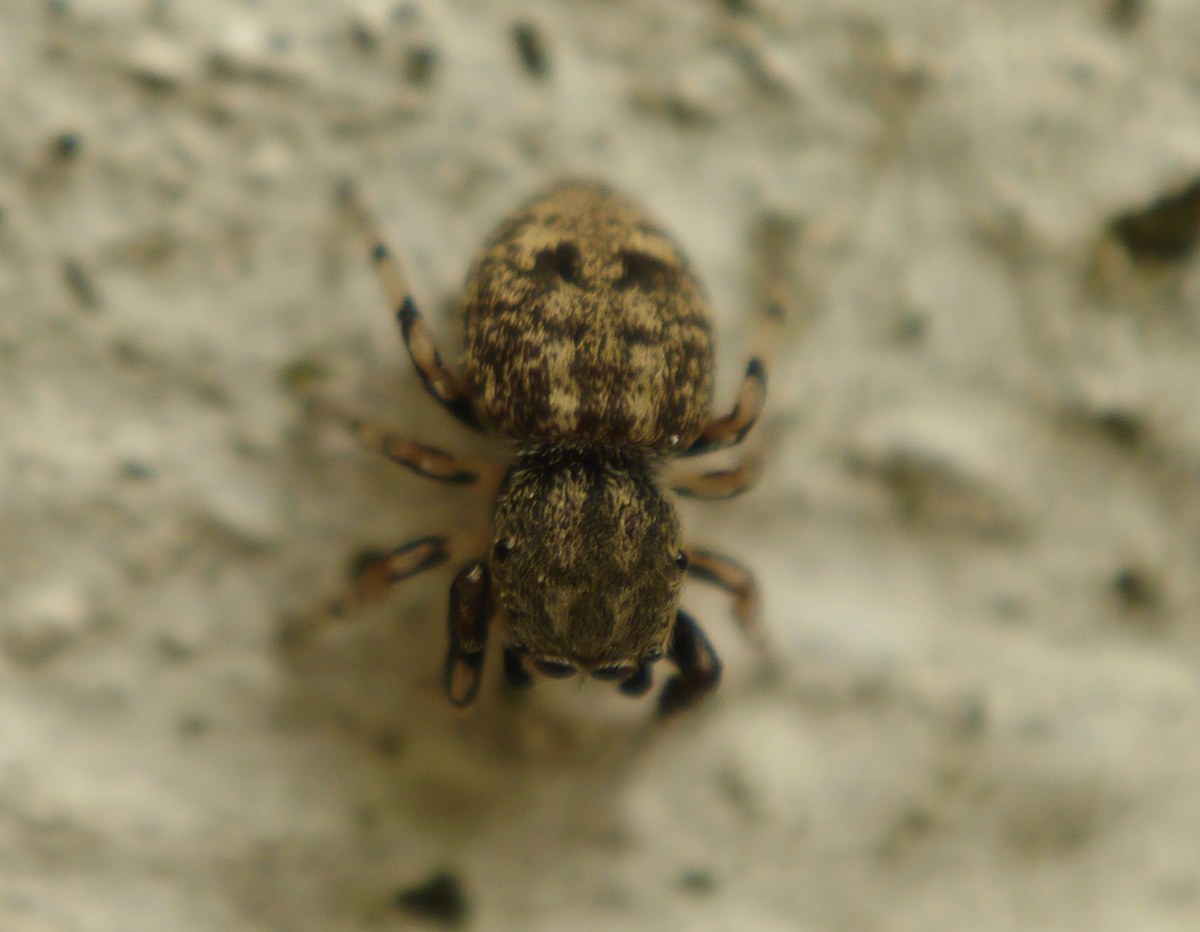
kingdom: Animalia
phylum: Arthropoda
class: Arachnida
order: Araneae
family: Salticidae
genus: Ballus
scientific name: Ballus chalybeius
